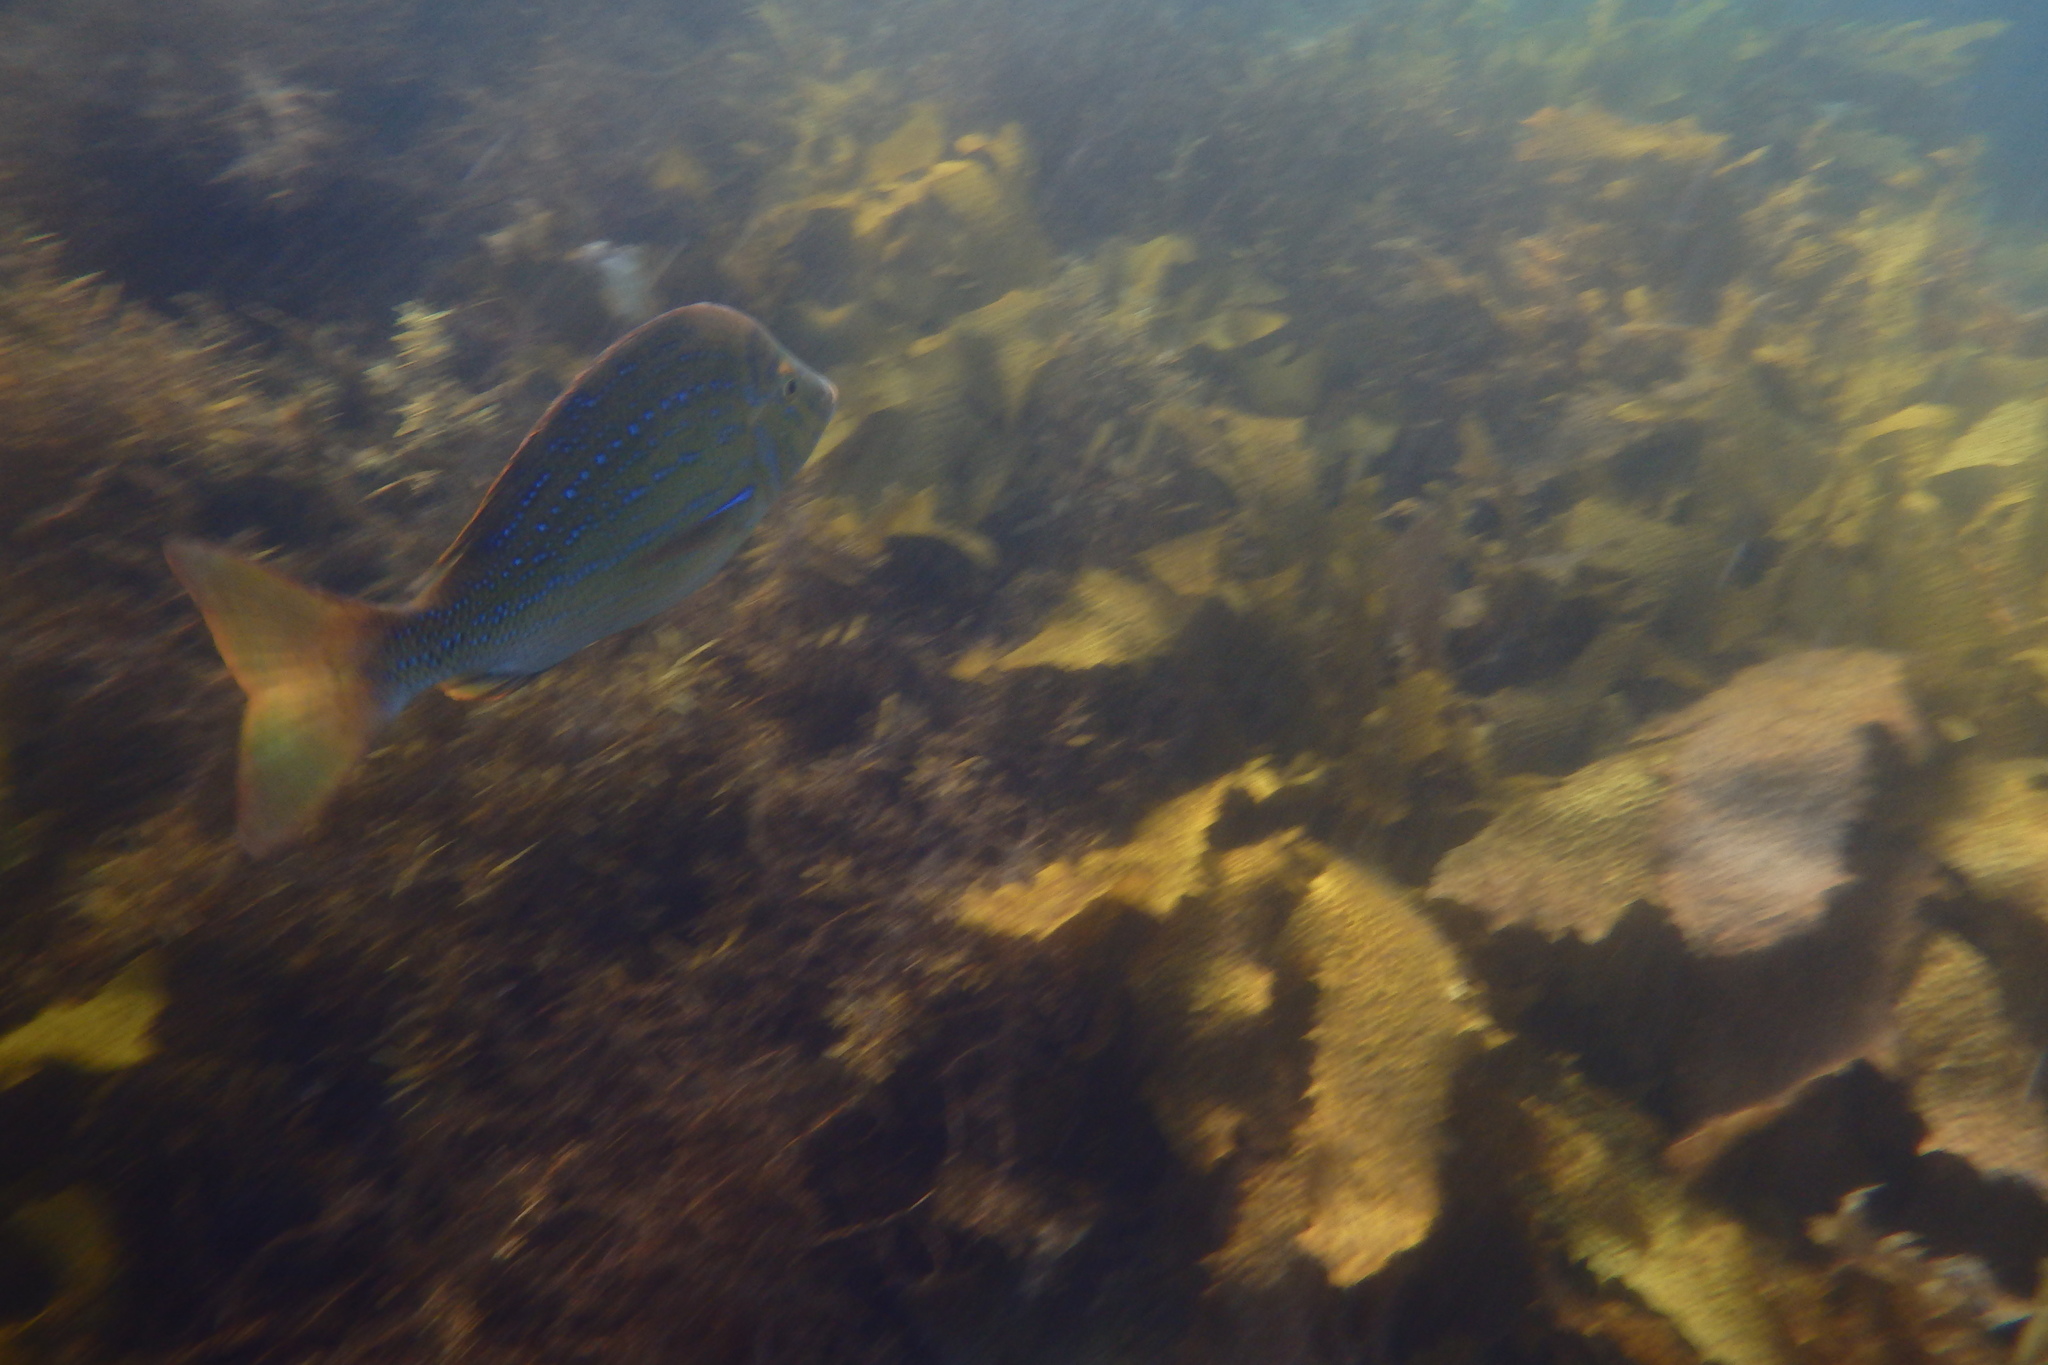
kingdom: Animalia
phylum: Chordata
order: Perciformes
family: Lethrinidae
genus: Lethrinus
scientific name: Lethrinus nebulosus
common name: Spangled emperor
